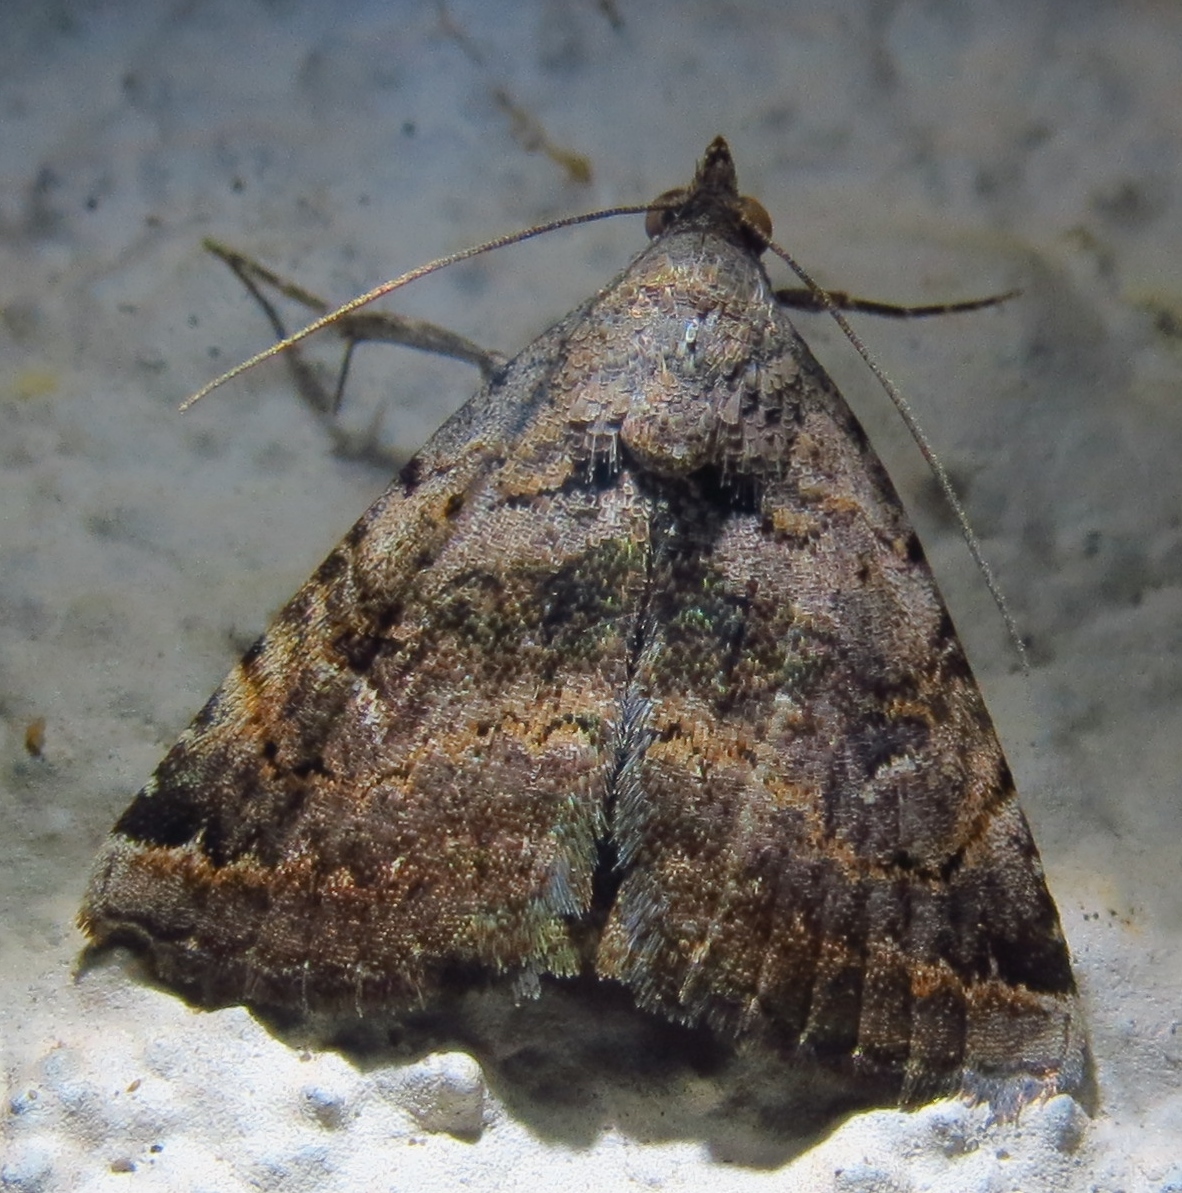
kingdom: Animalia
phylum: Arthropoda
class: Insecta
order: Lepidoptera
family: Erebidae
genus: Toxonprucha
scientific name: Toxonprucha crudelis
